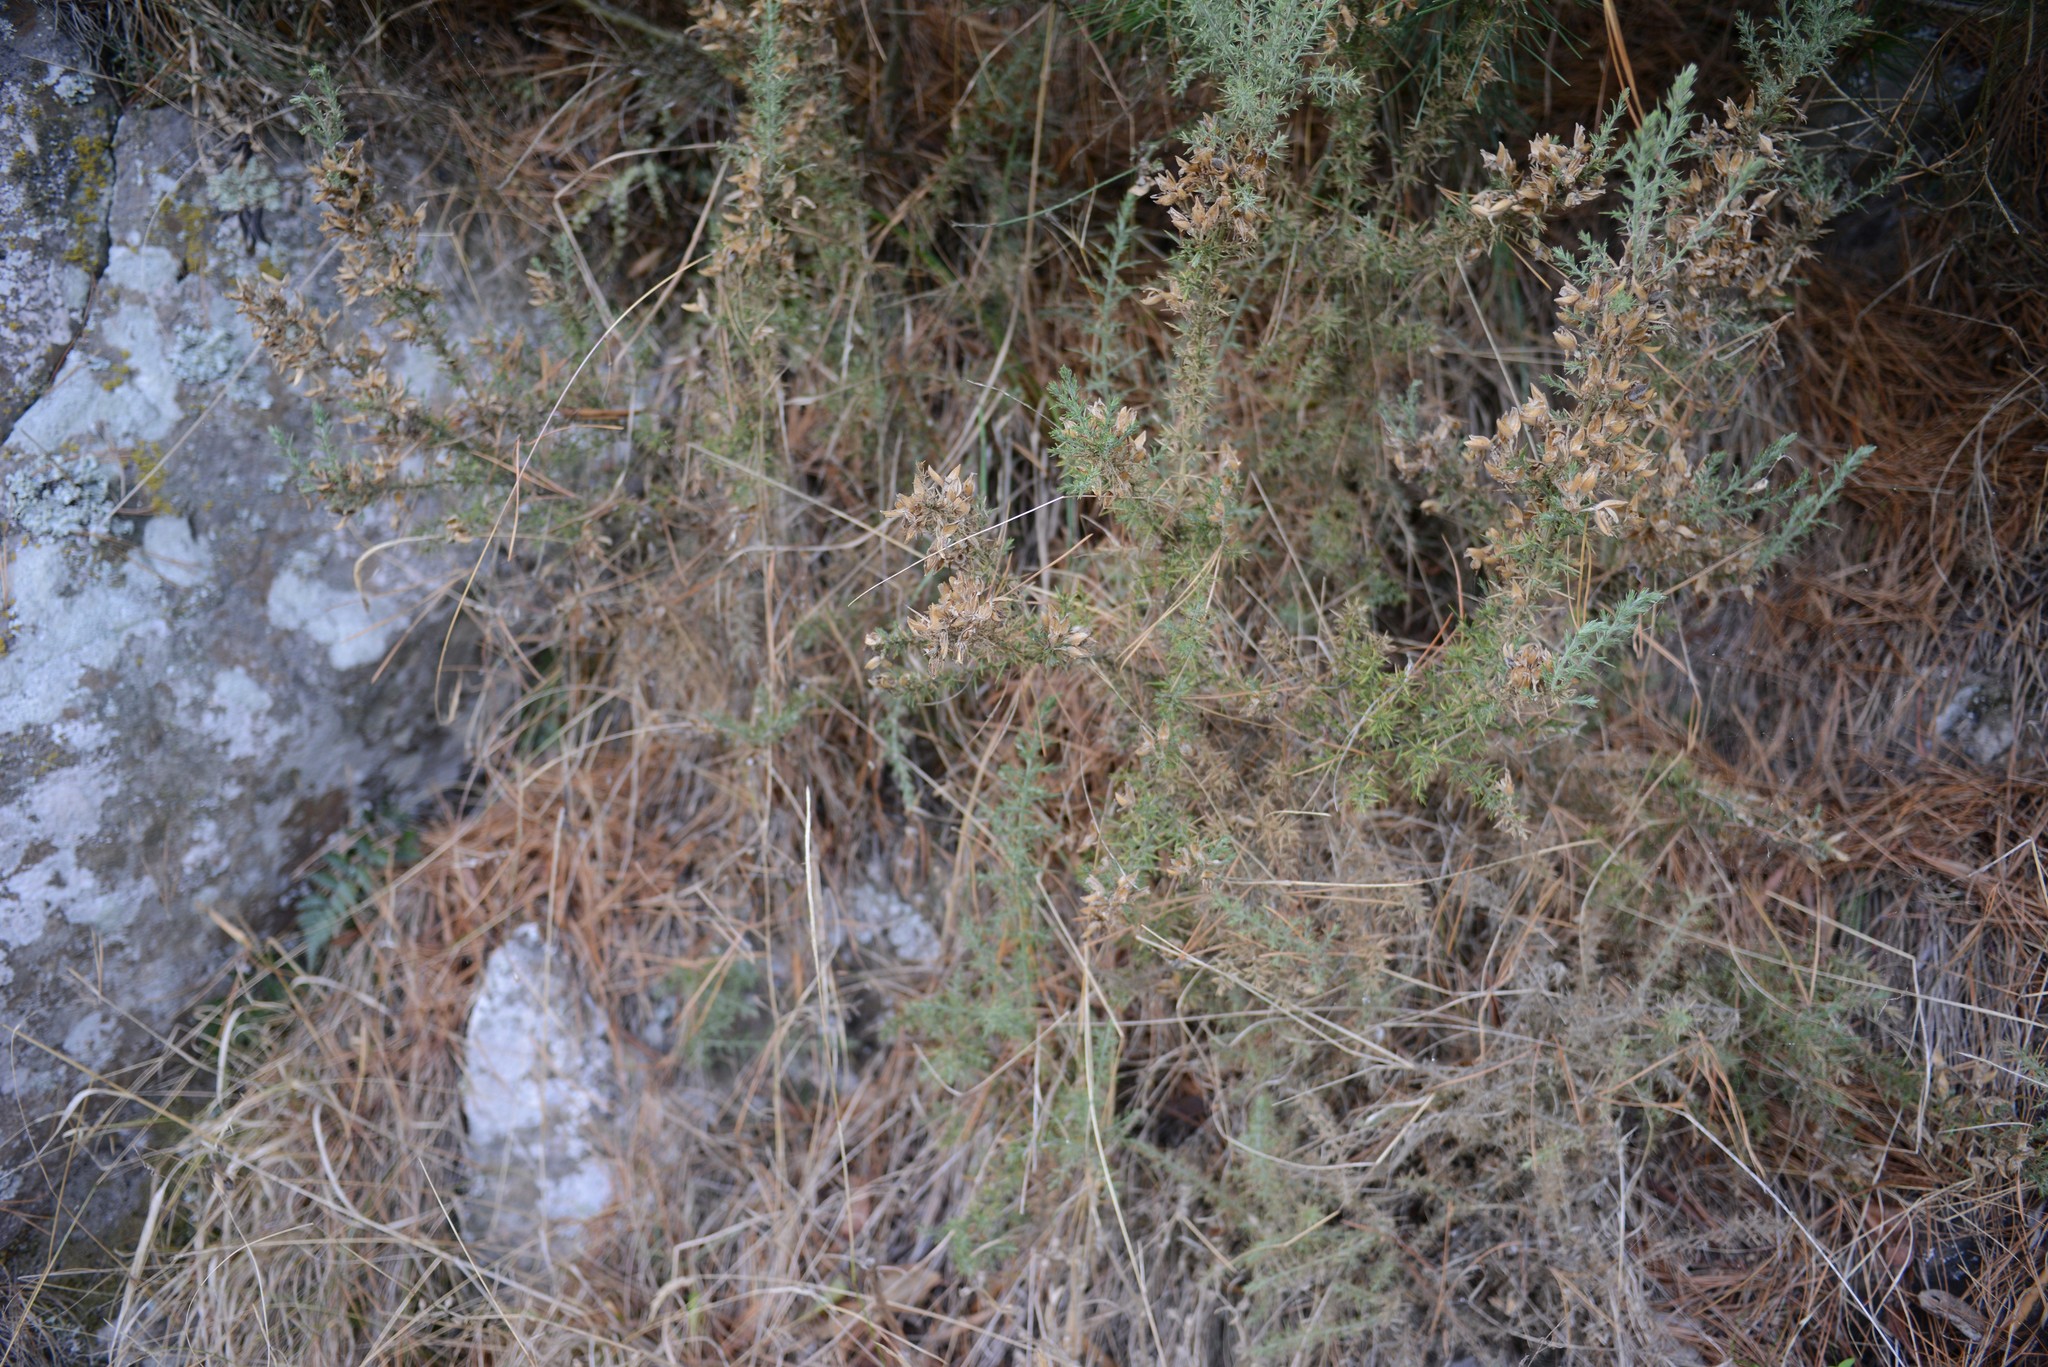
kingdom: Plantae
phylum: Tracheophyta
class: Magnoliopsida
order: Fabales
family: Fabaceae
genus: Ulex
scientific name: Ulex europaeus
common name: Common gorse
